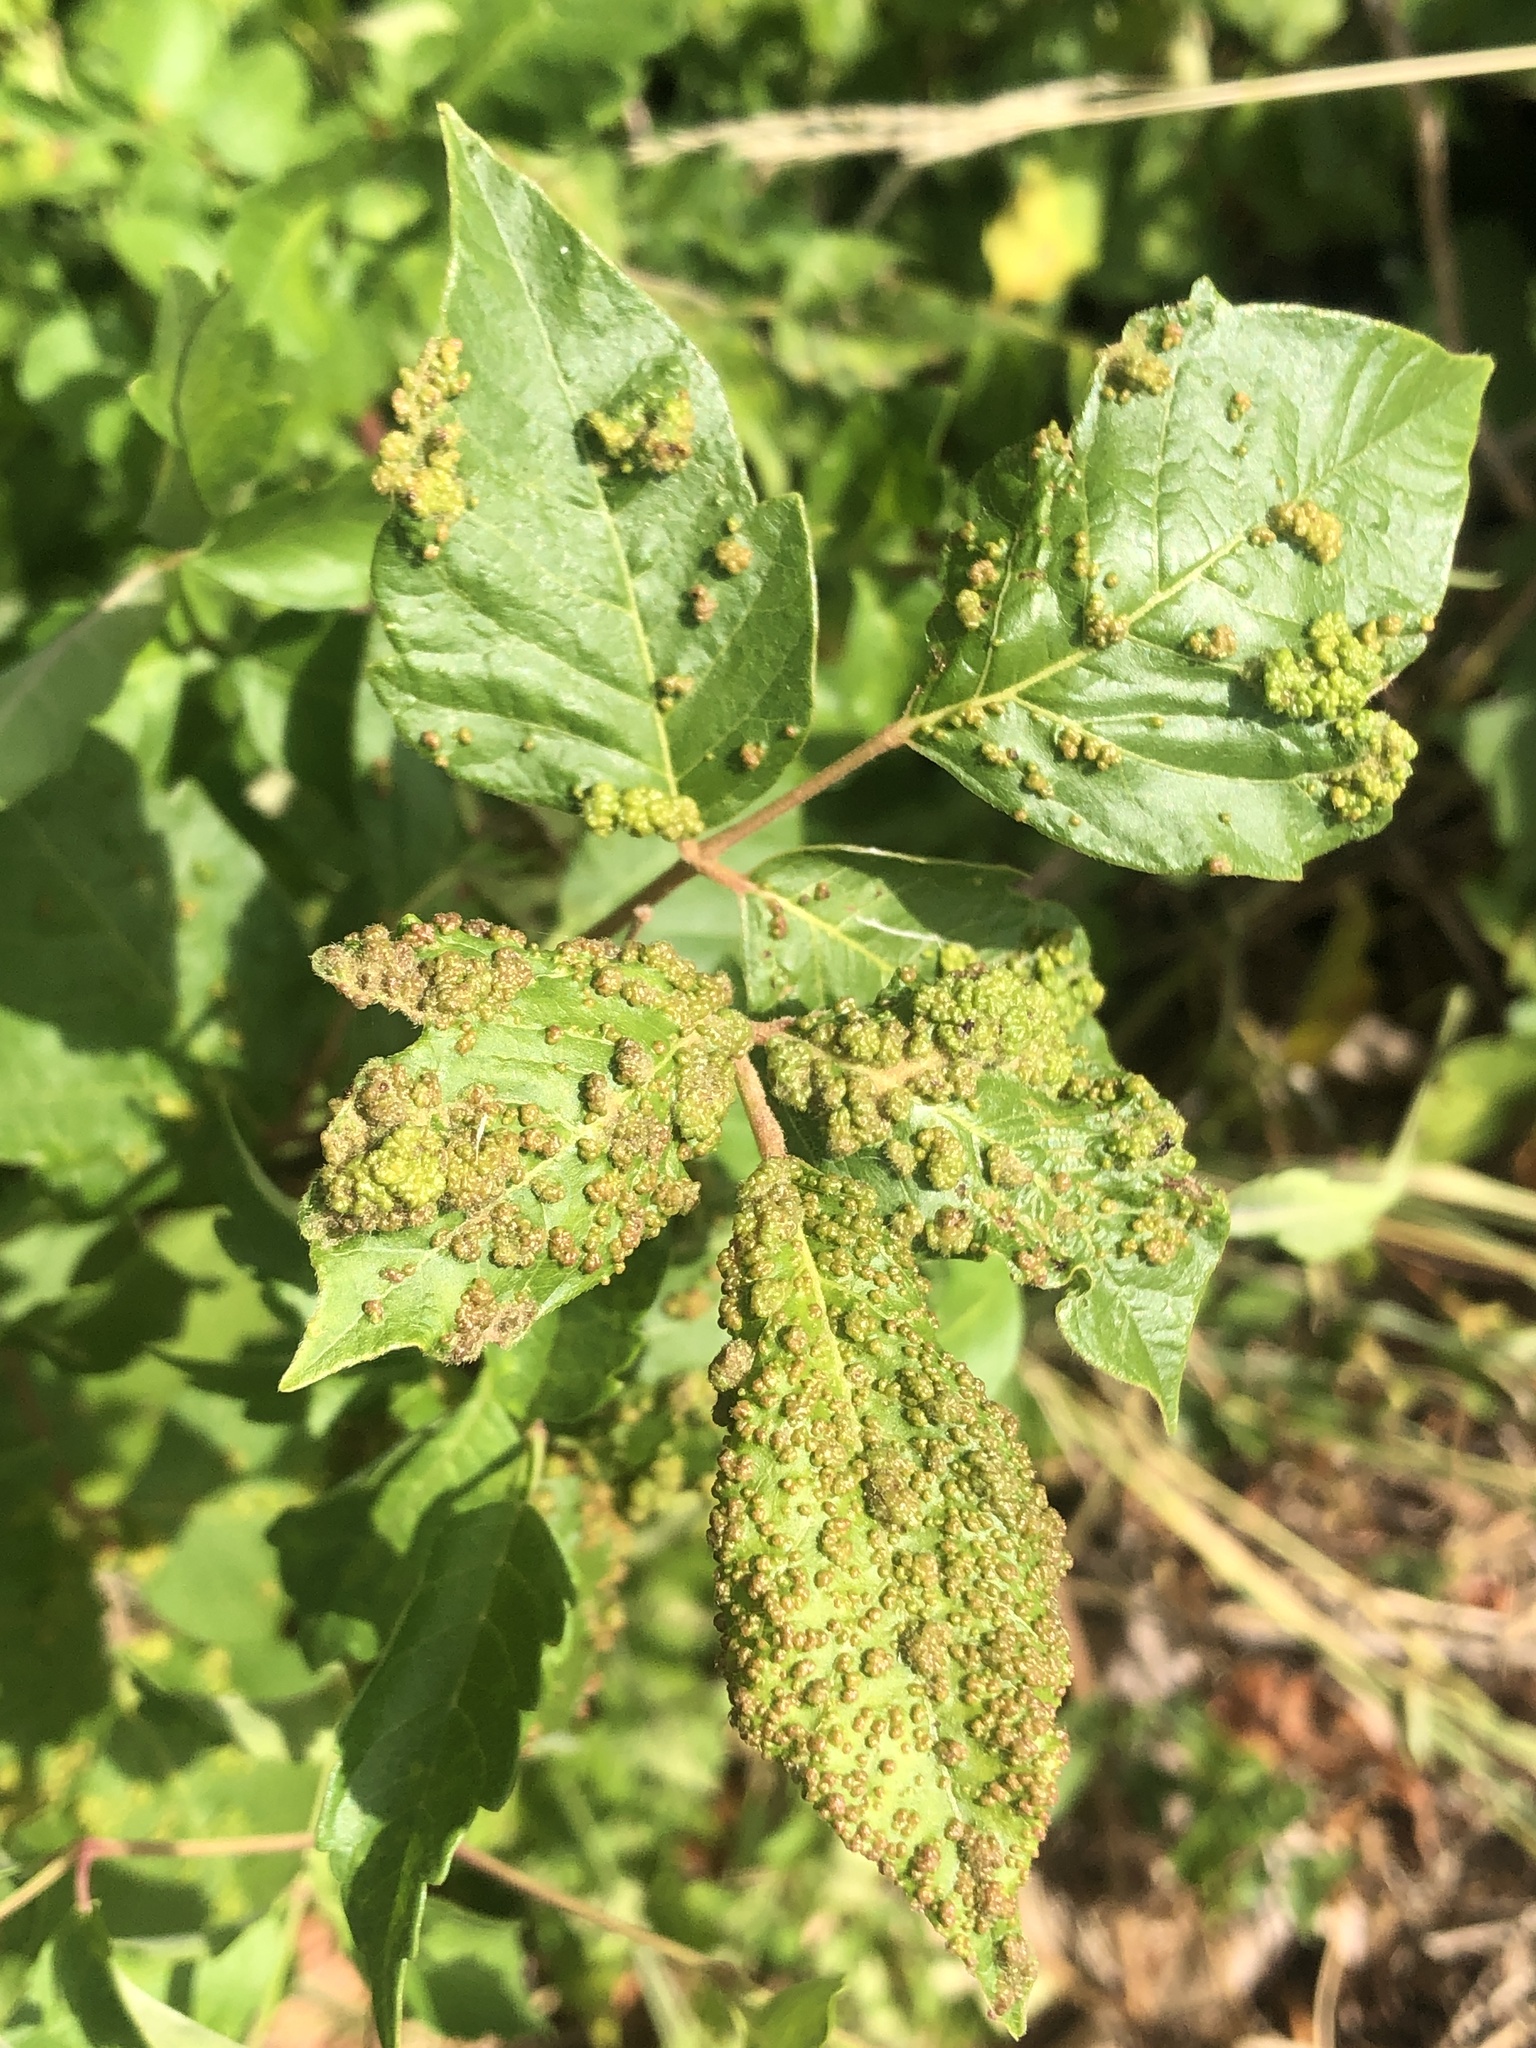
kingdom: Animalia
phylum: Arthropoda
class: Arachnida
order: Trombidiformes
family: Eriophyidae
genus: Aculops
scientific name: Aculops
